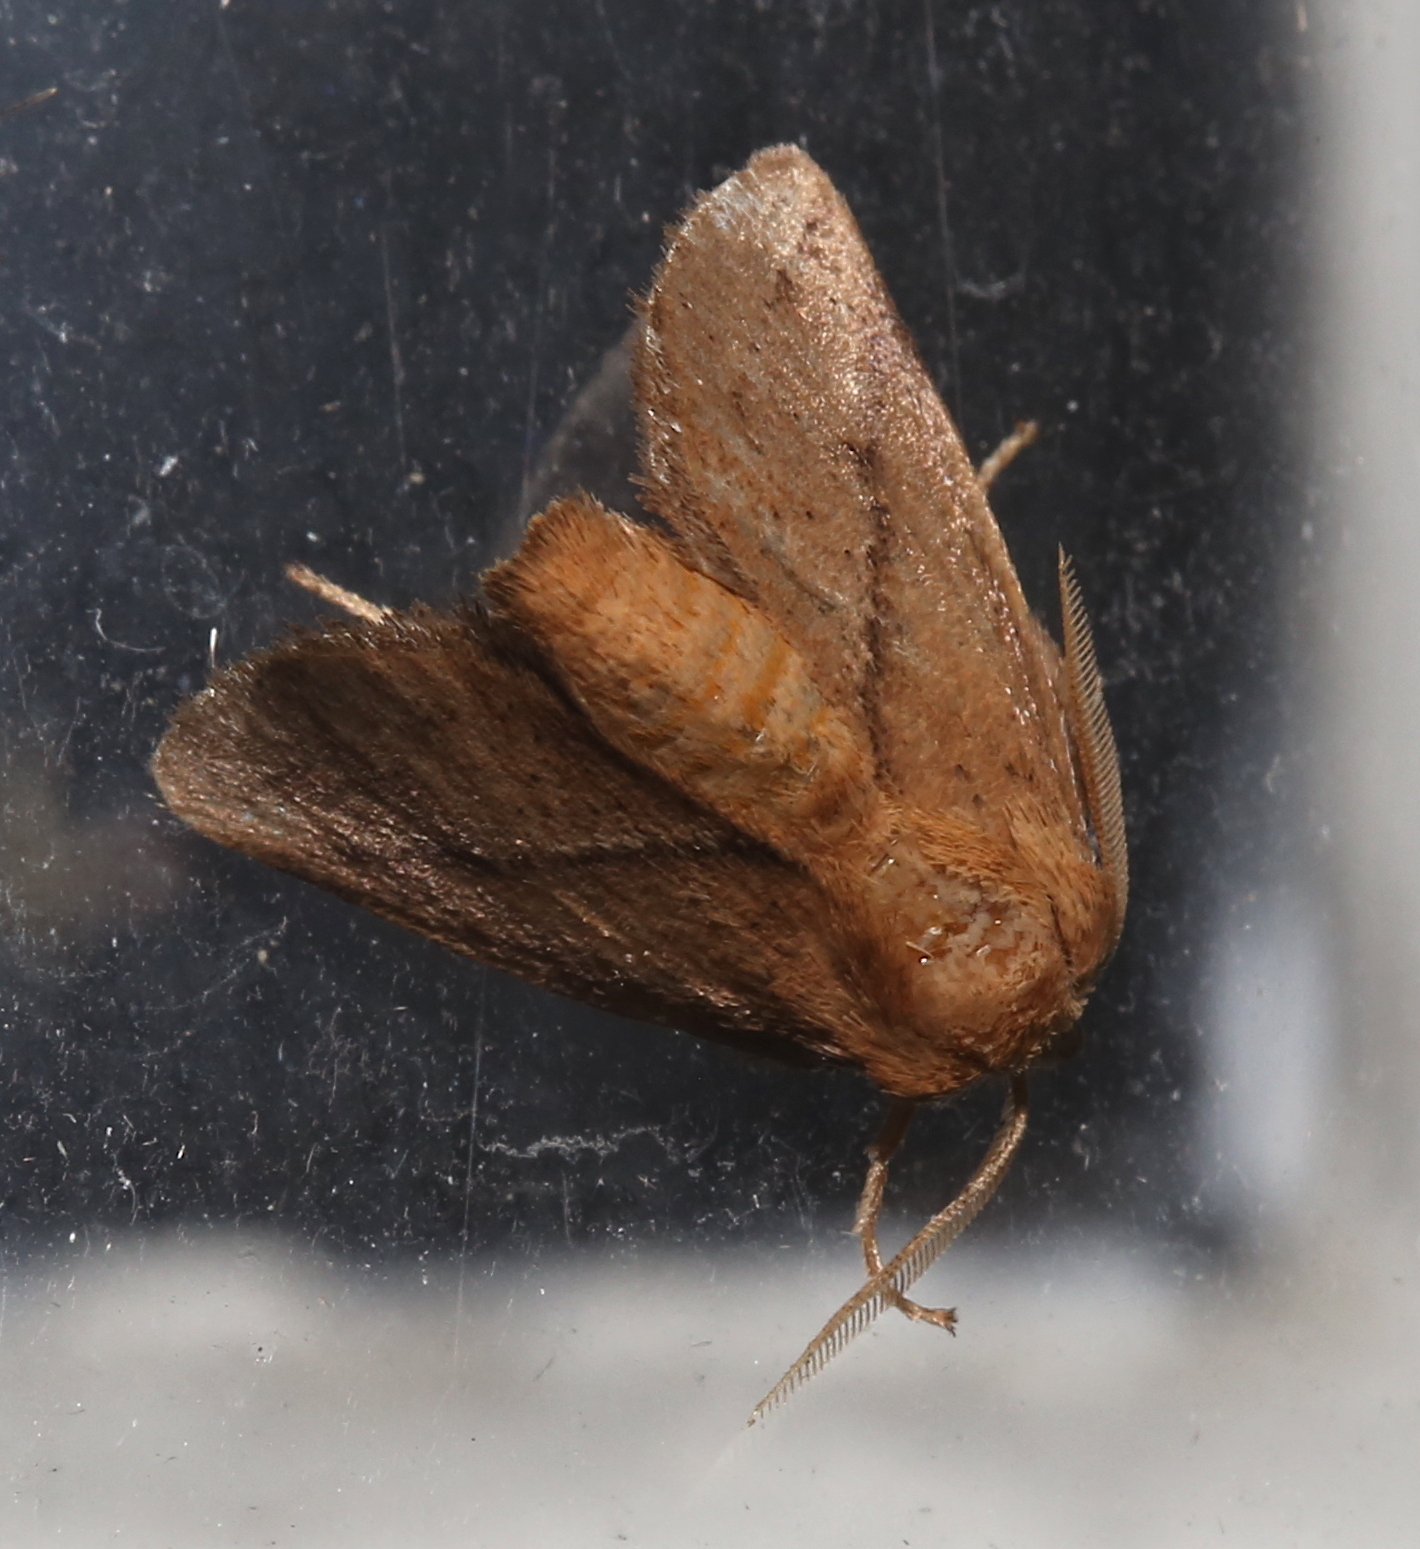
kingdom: Animalia
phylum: Arthropoda
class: Insecta
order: Lepidoptera
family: Limacodidae
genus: Natada
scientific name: Natada nasoni
